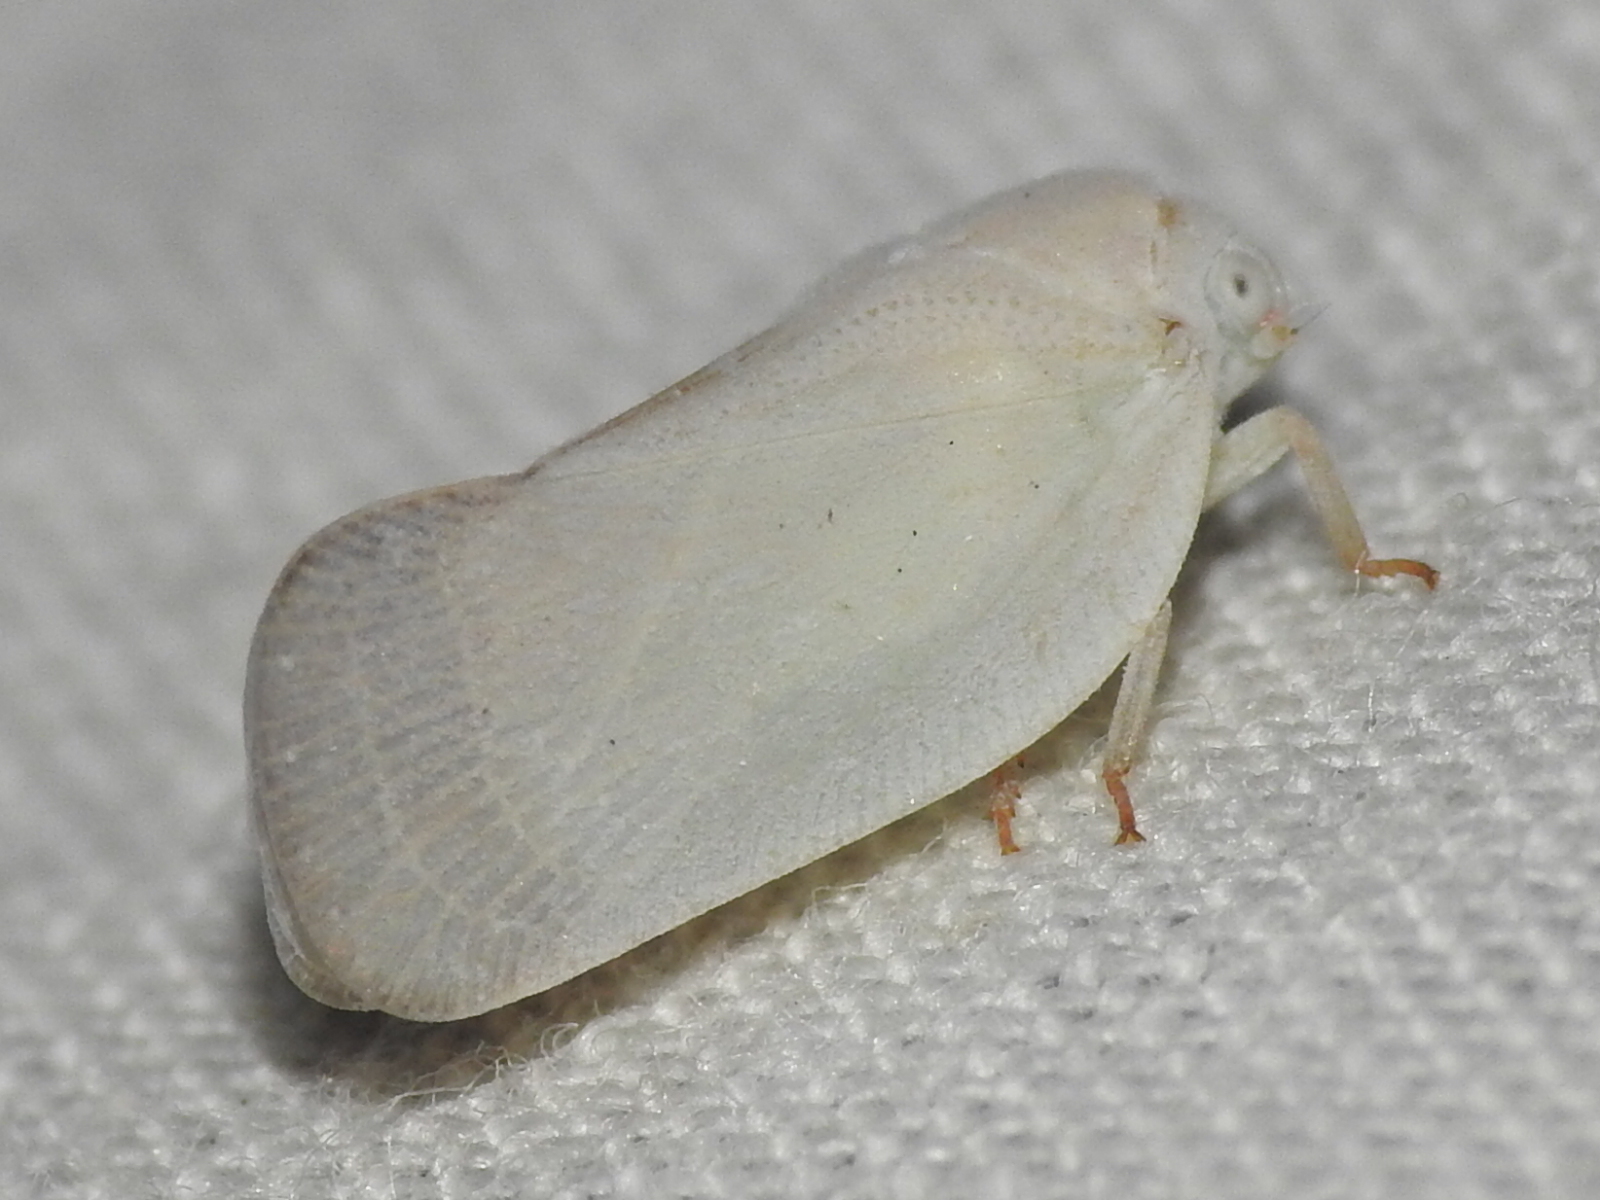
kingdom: Animalia
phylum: Arthropoda
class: Insecta
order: Hemiptera
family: Flatidae
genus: Flatormenis
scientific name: Flatormenis saucia
